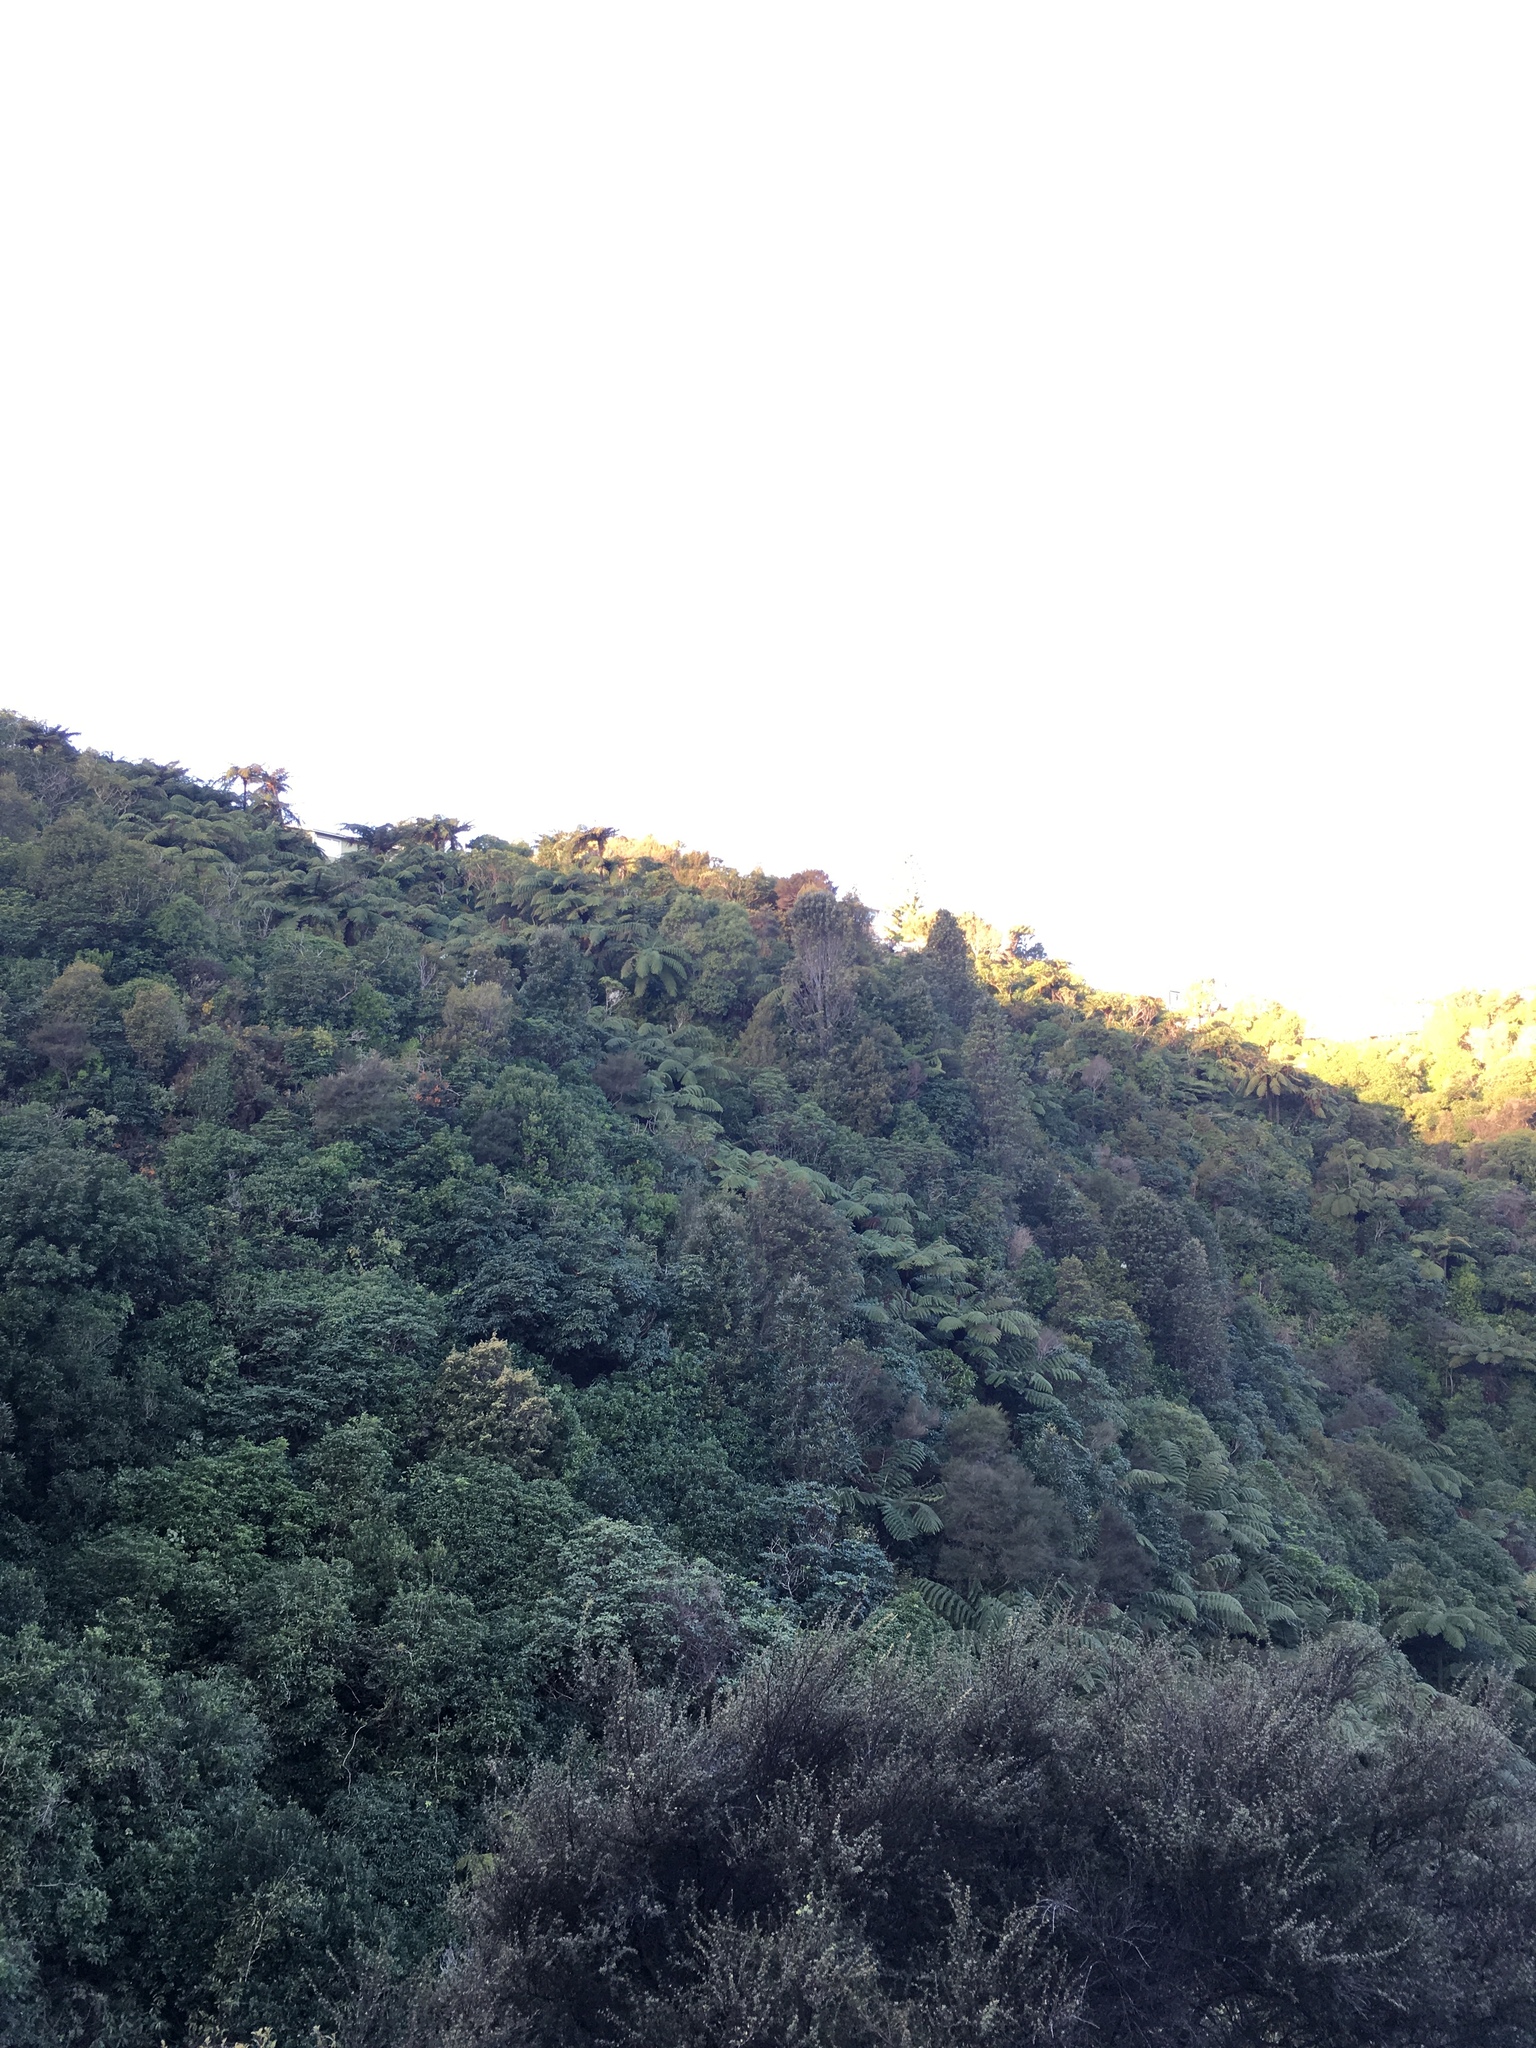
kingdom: Plantae
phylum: Tracheophyta
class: Magnoliopsida
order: Ranunculales
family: Ranunculaceae
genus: Clematis
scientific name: Clematis paniculata
